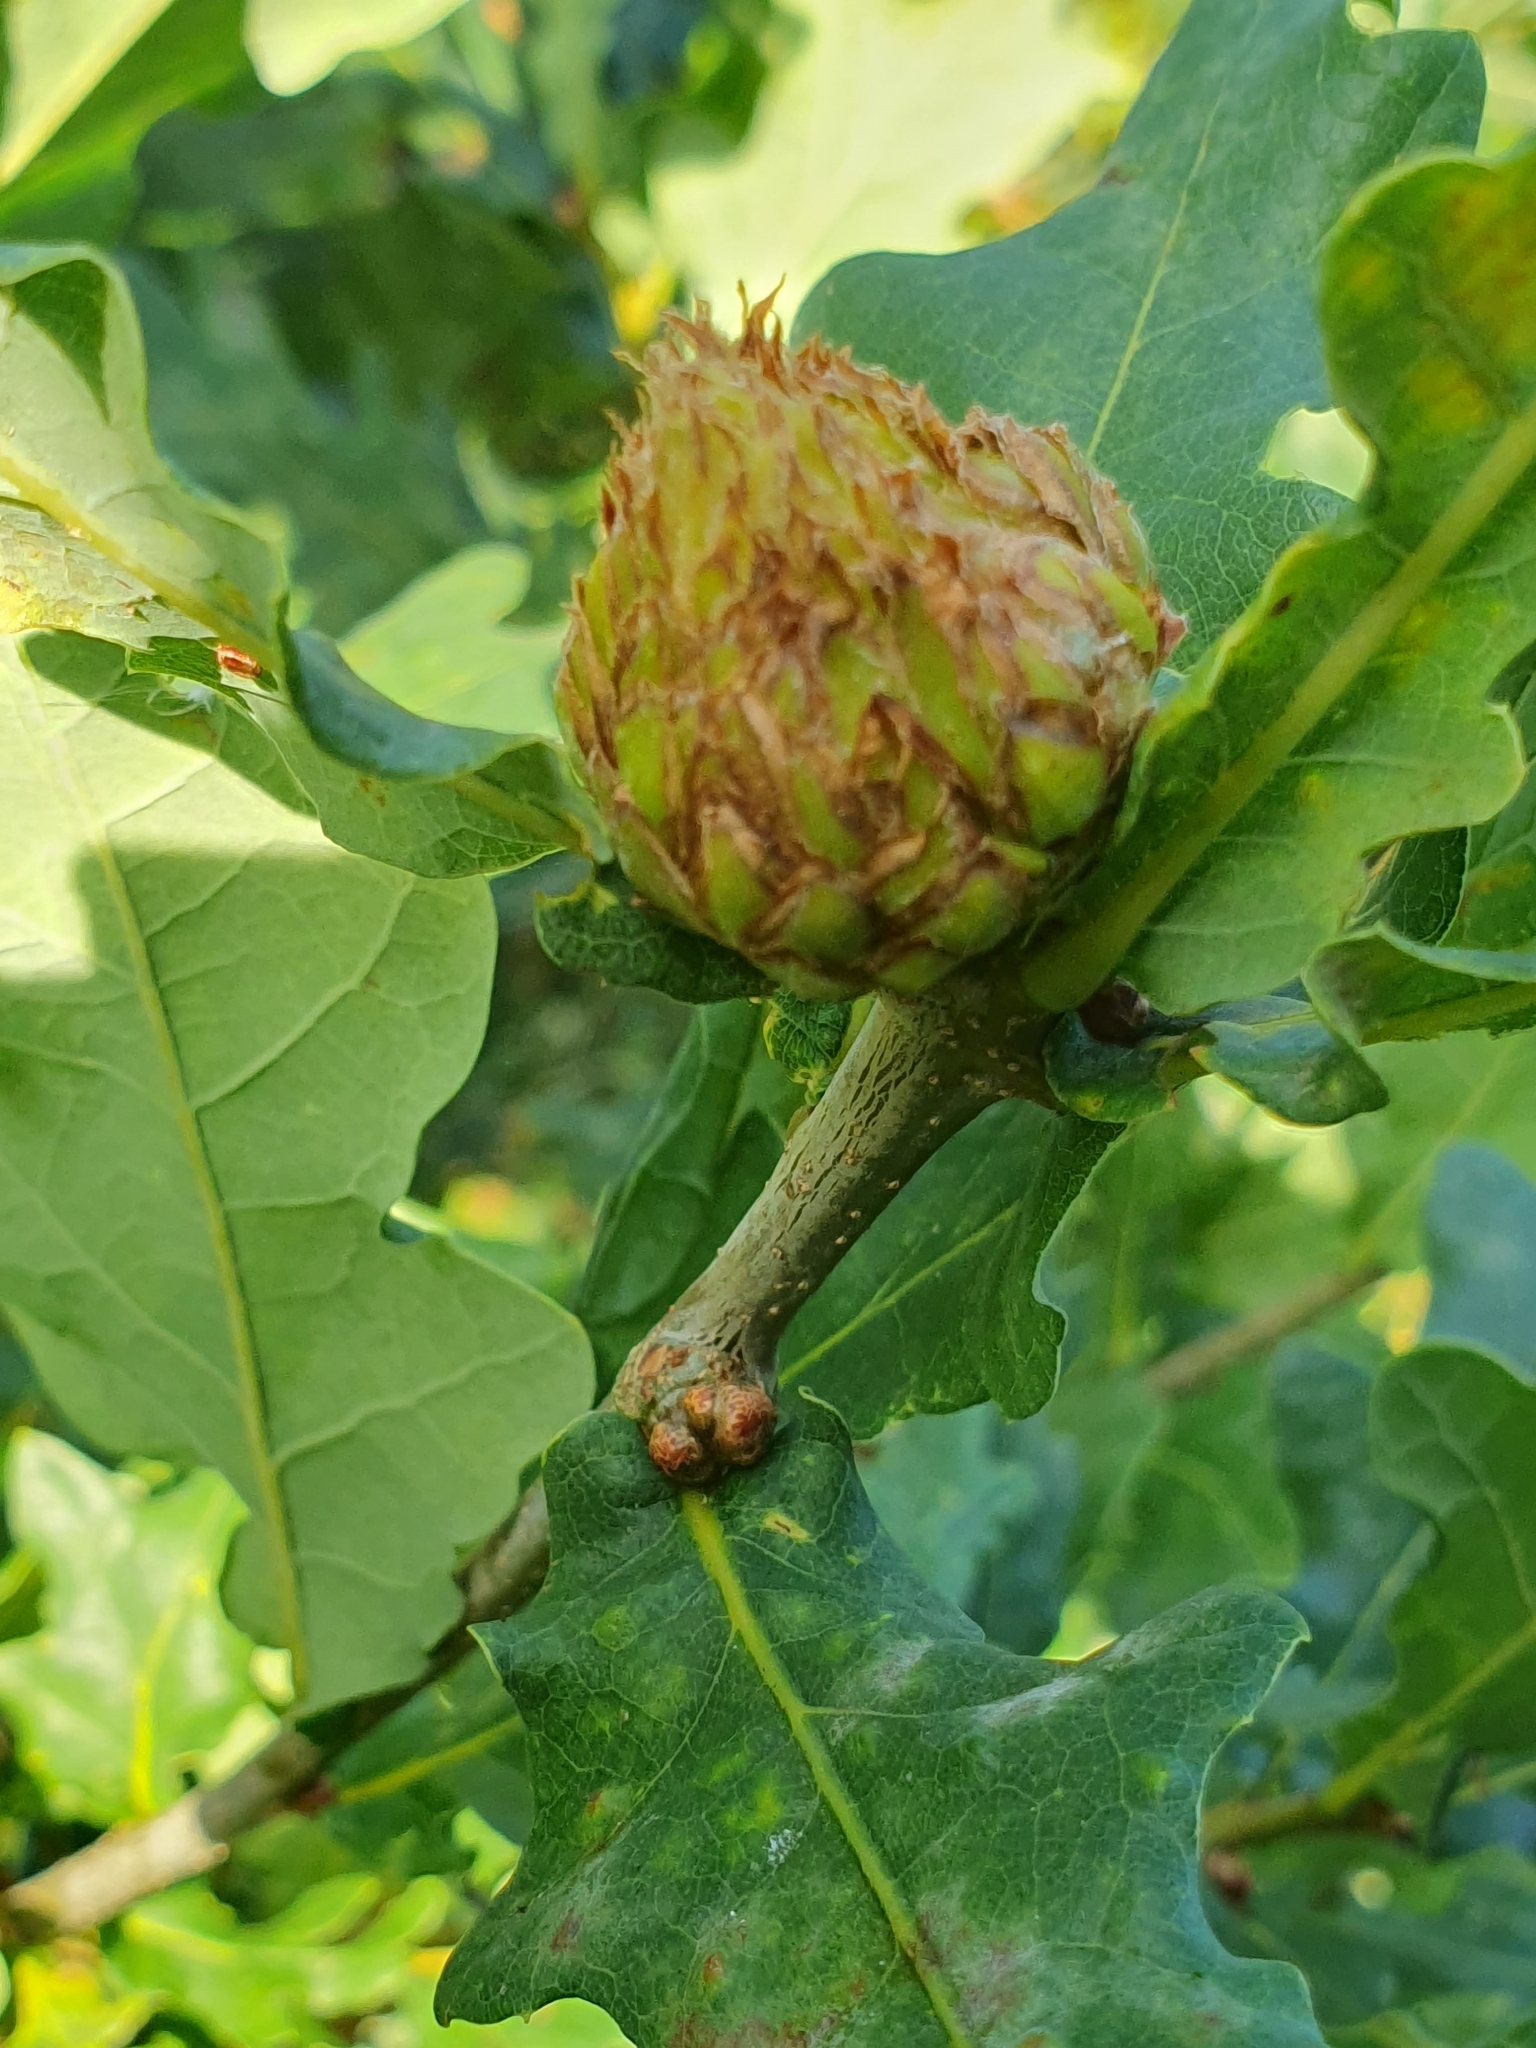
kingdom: Animalia
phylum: Arthropoda
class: Insecta
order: Hymenoptera
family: Cynipidae
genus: Andricus
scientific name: Andricus foecundatrix
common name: Artichoke gall
